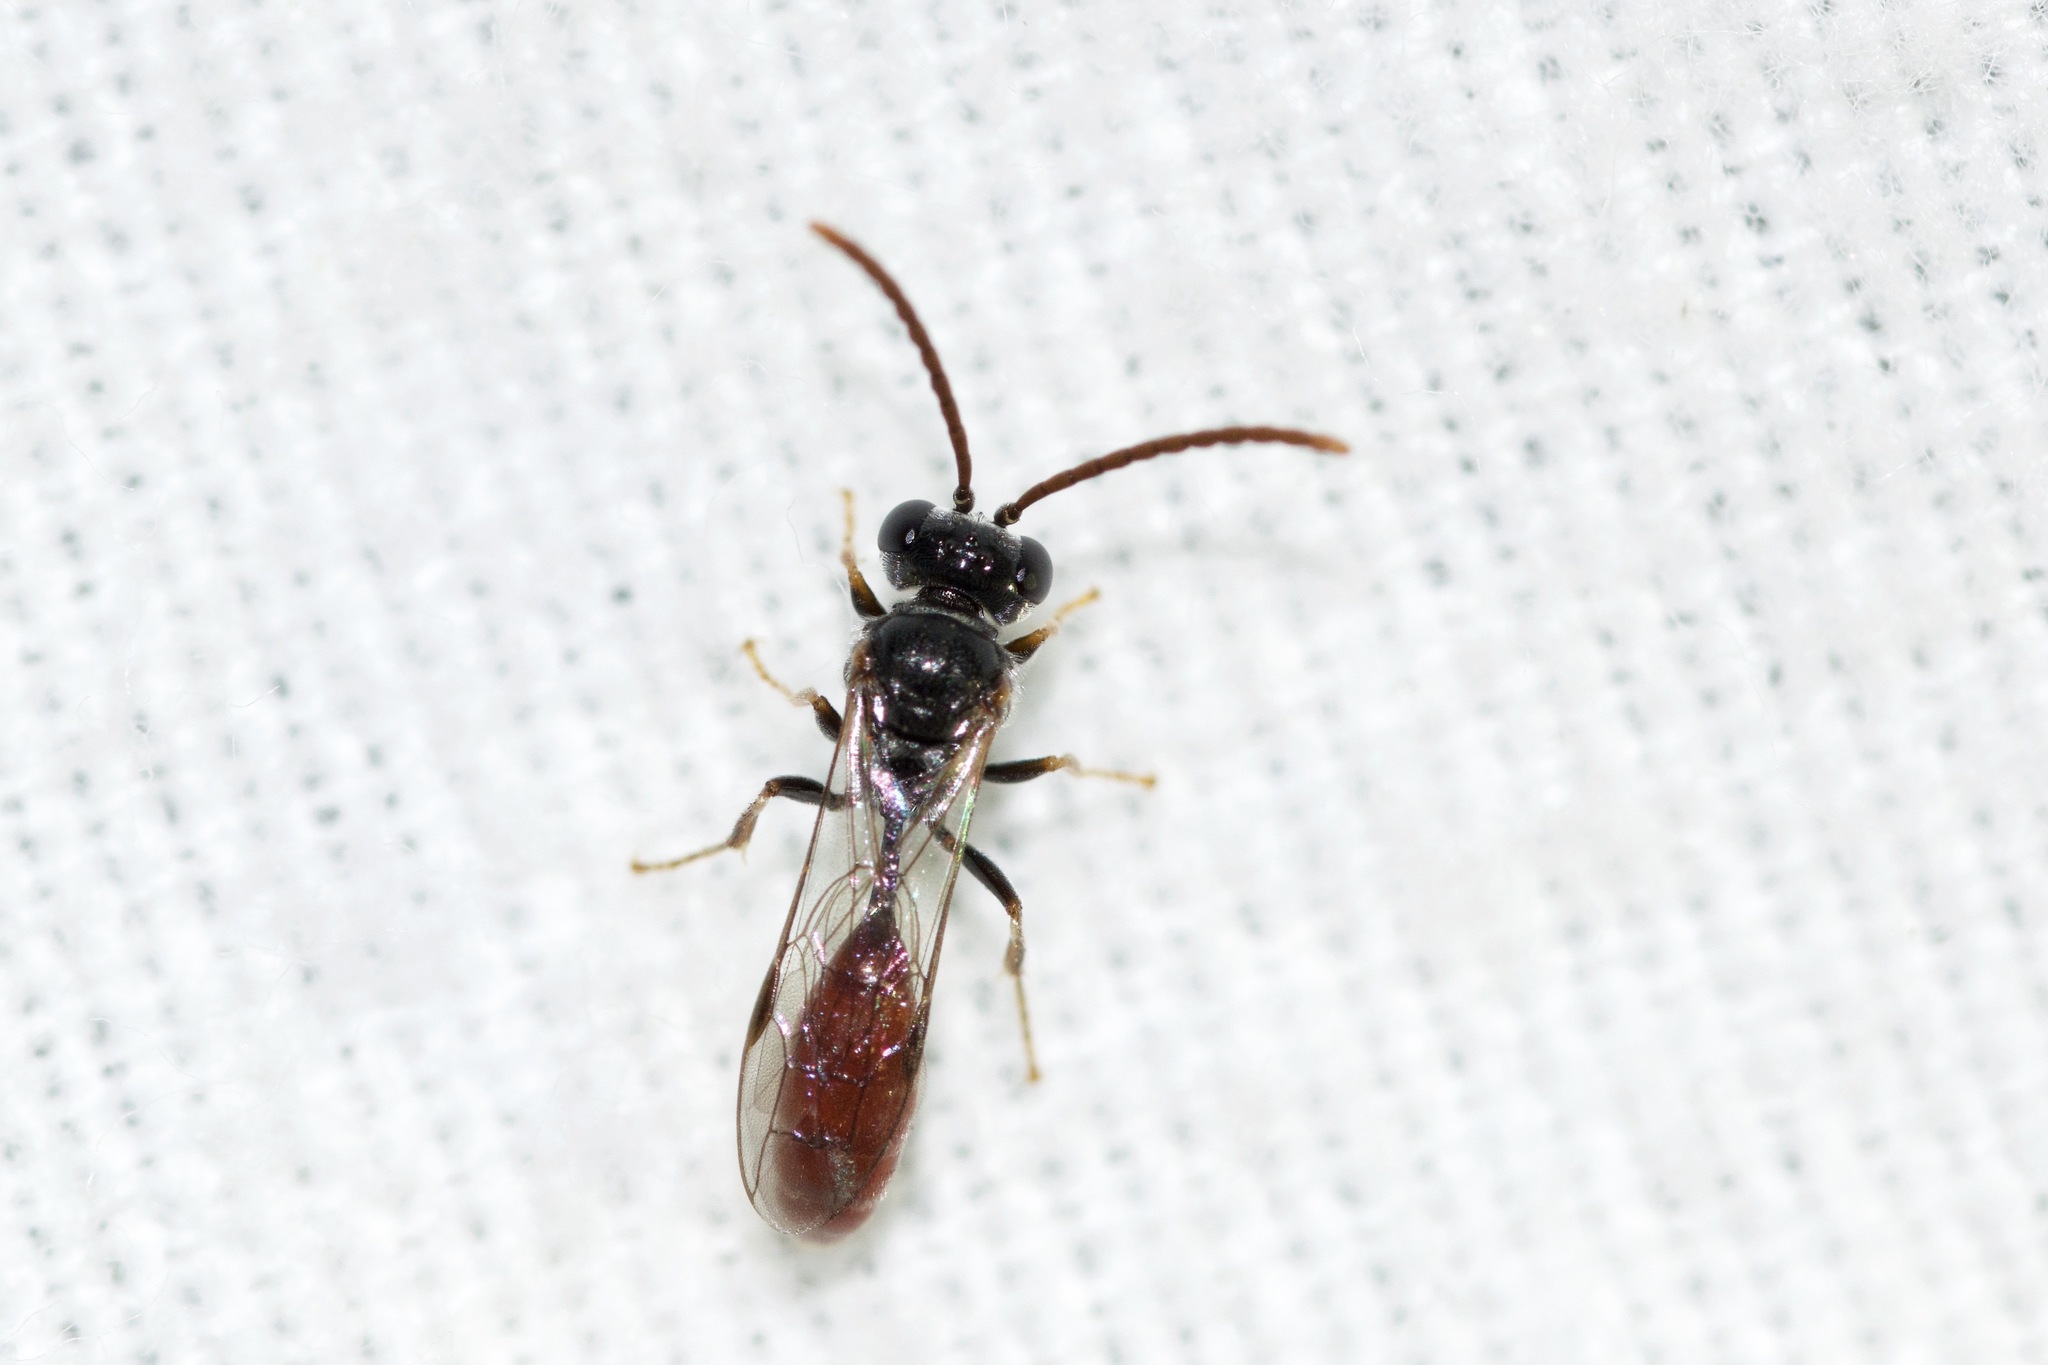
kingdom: Animalia
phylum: Arthropoda
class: Insecta
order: Hymenoptera
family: Crabronidae
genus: Psen
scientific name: Psen monticola
